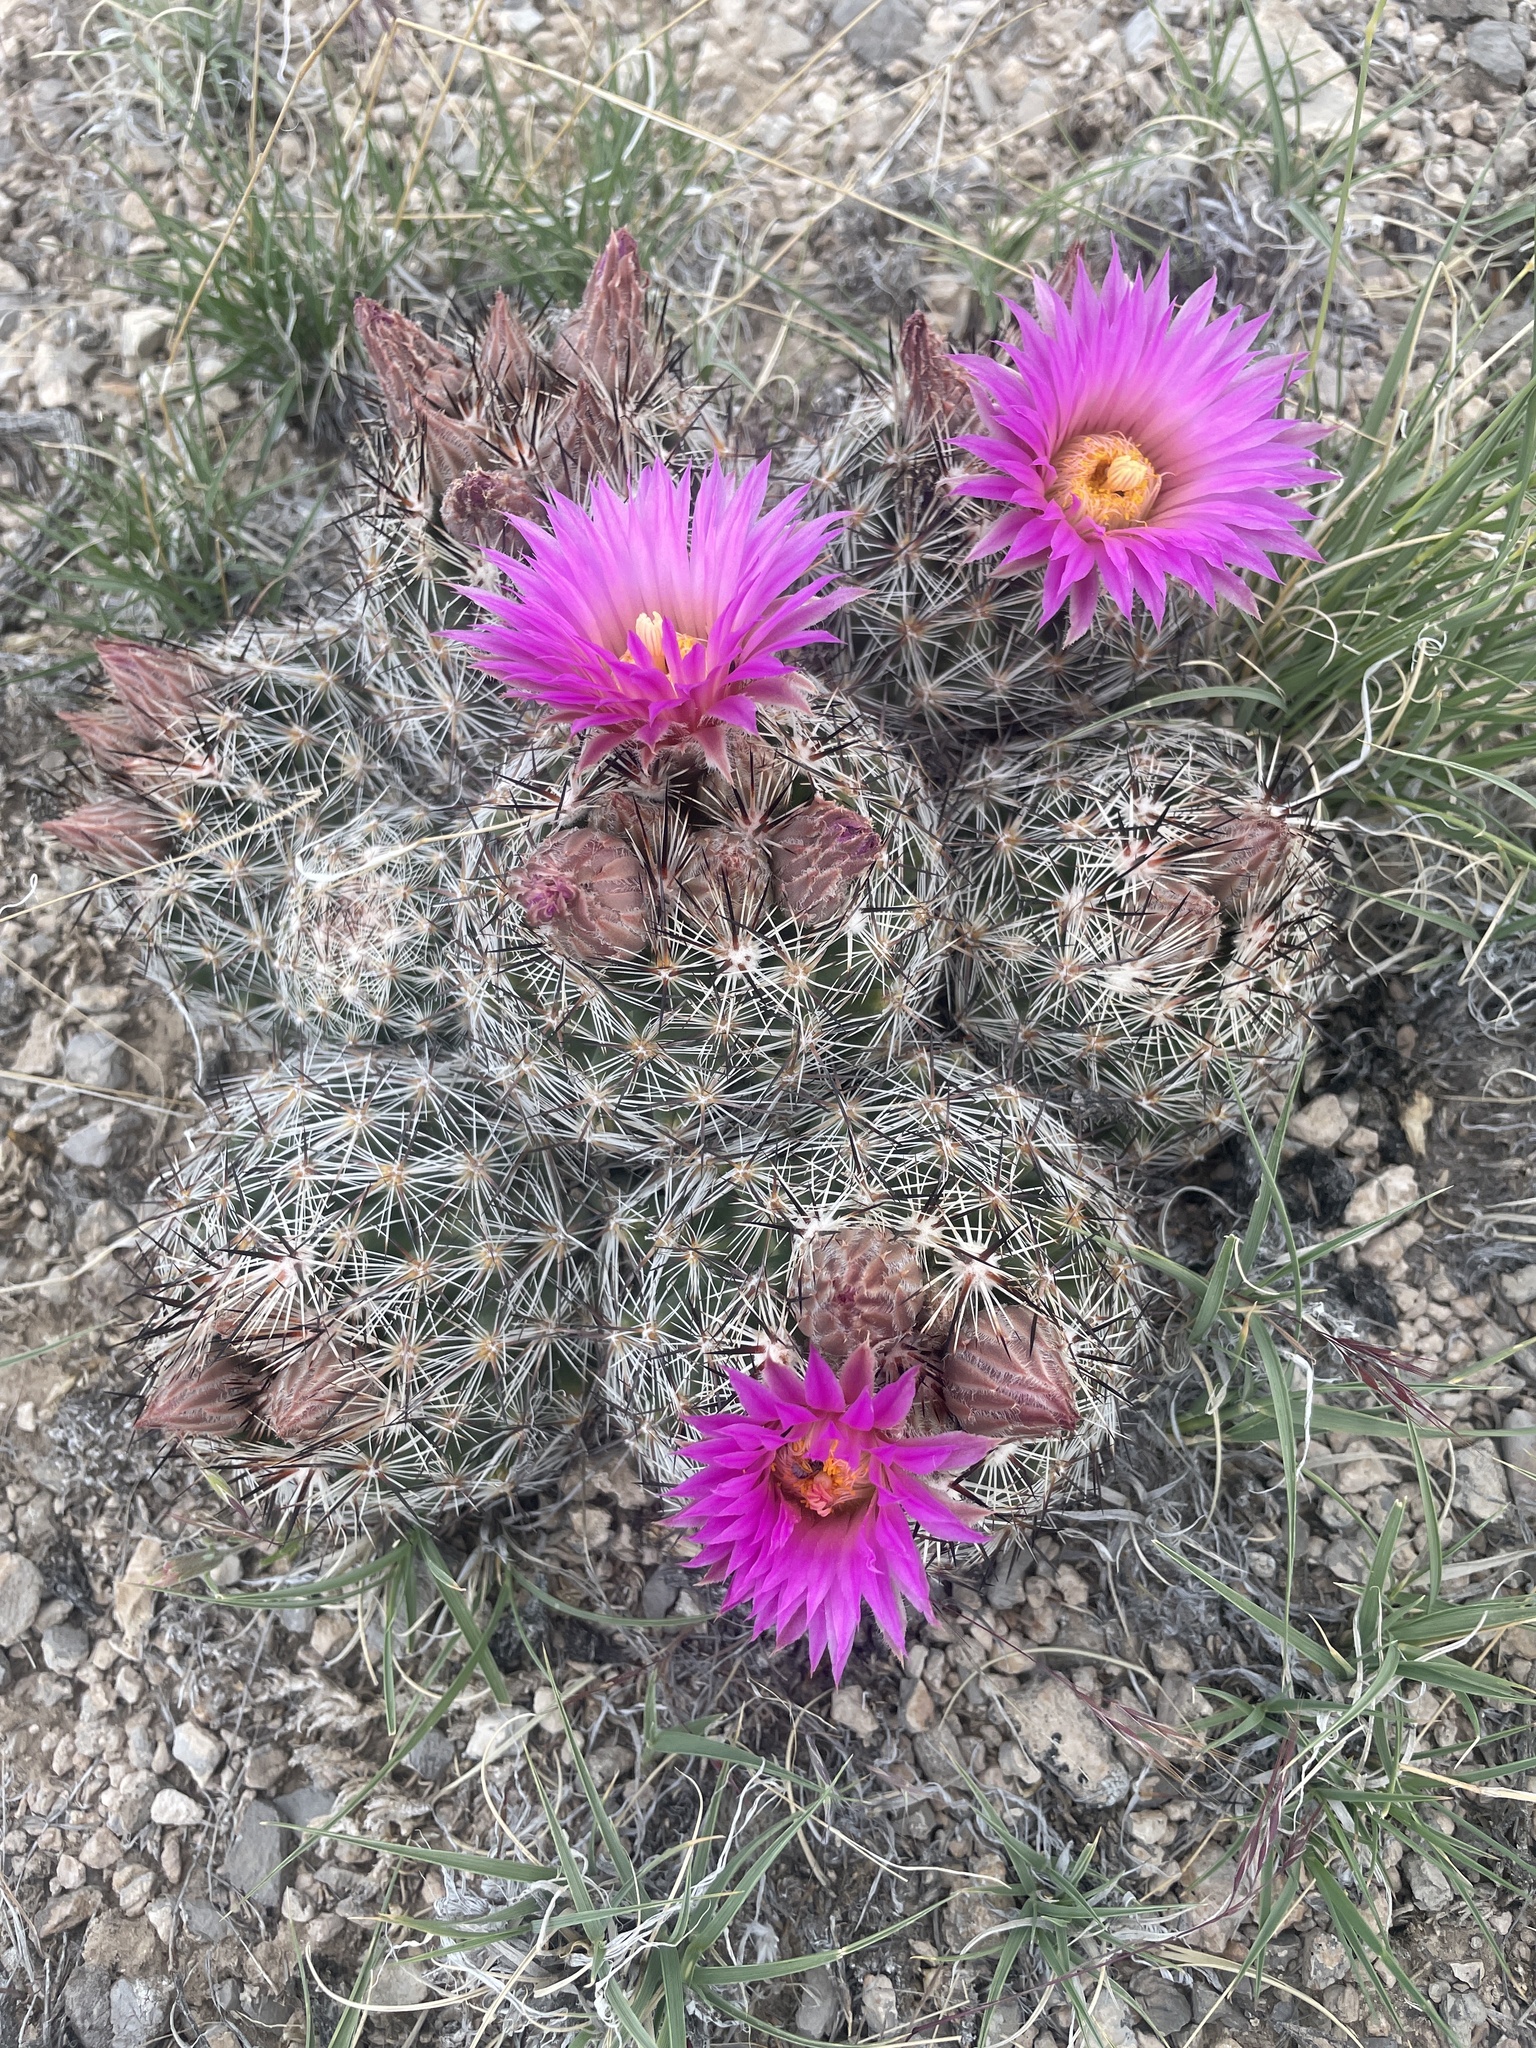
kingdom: Plantae
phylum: Tracheophyta
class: Magnoliopsida
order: Caryophyllales
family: Cactaceae
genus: Pelecyphora
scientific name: Pelecyphora vivipara
